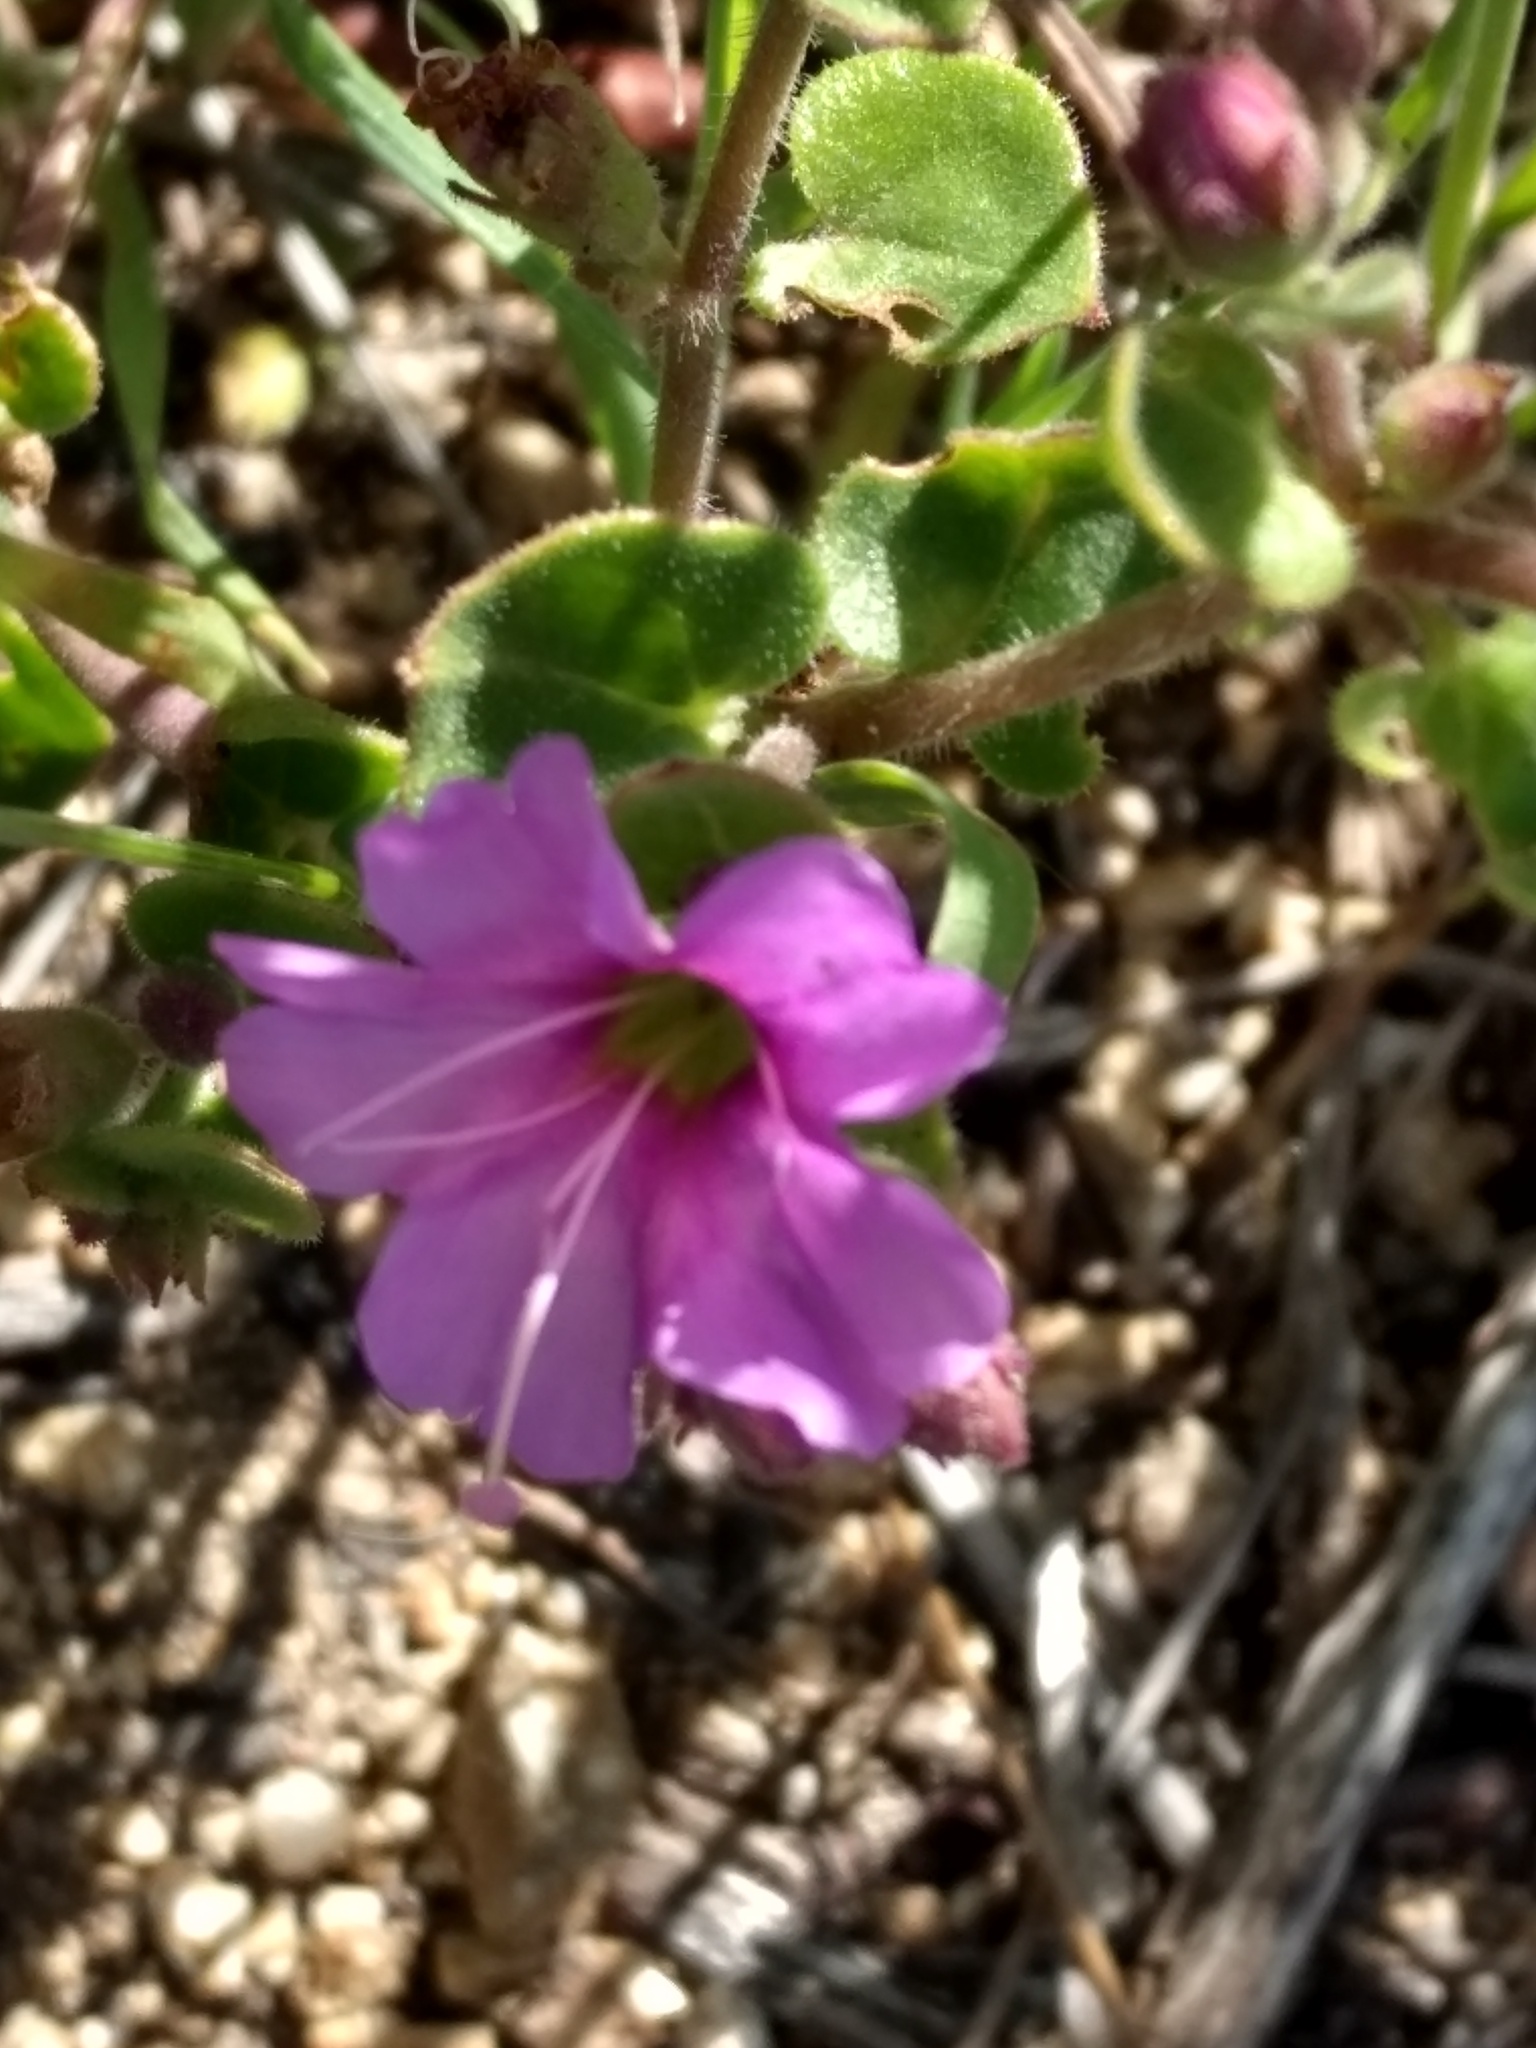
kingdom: Plantae
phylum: Tracheophyta
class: Magnoliopsida
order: Caryophyllales
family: Nyctaginaceae
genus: Mirabilis
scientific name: Mirabilis laevis
